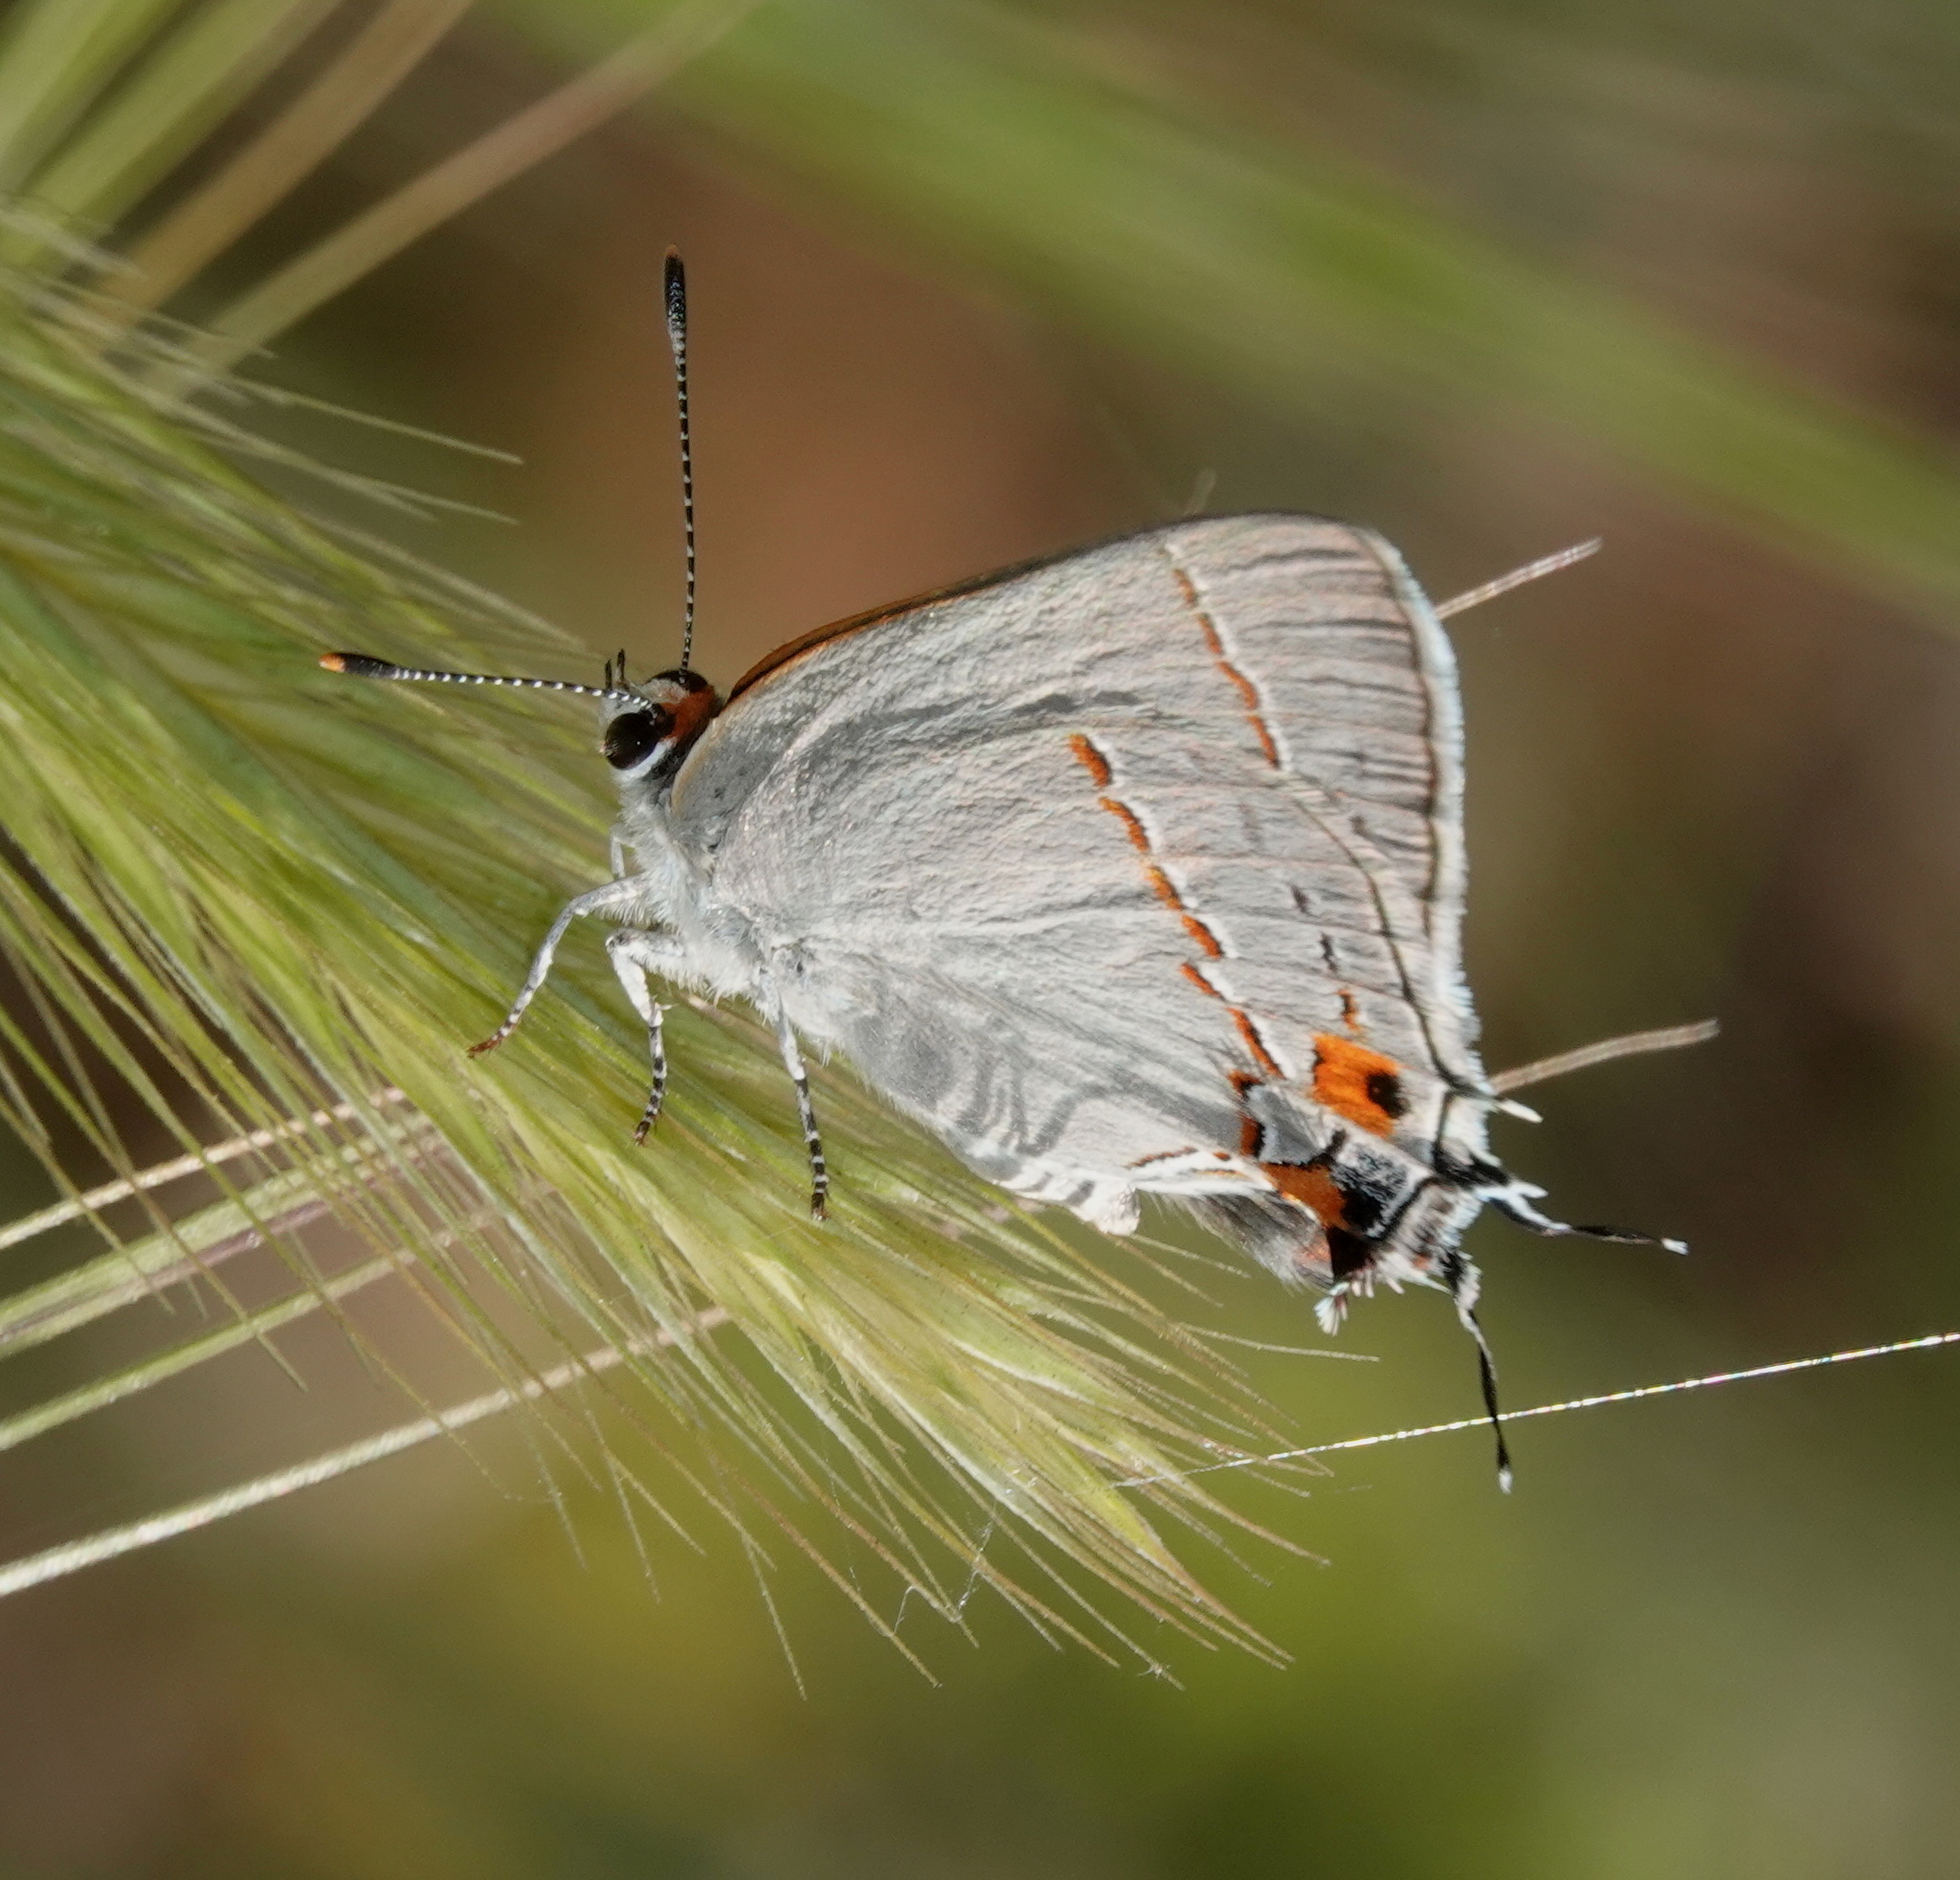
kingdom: Animalia
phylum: Arthropoda
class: Insecta
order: Lepidoptera
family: Lycaenidae
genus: Strymon
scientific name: Strymon melinus
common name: Gray hairstreak
